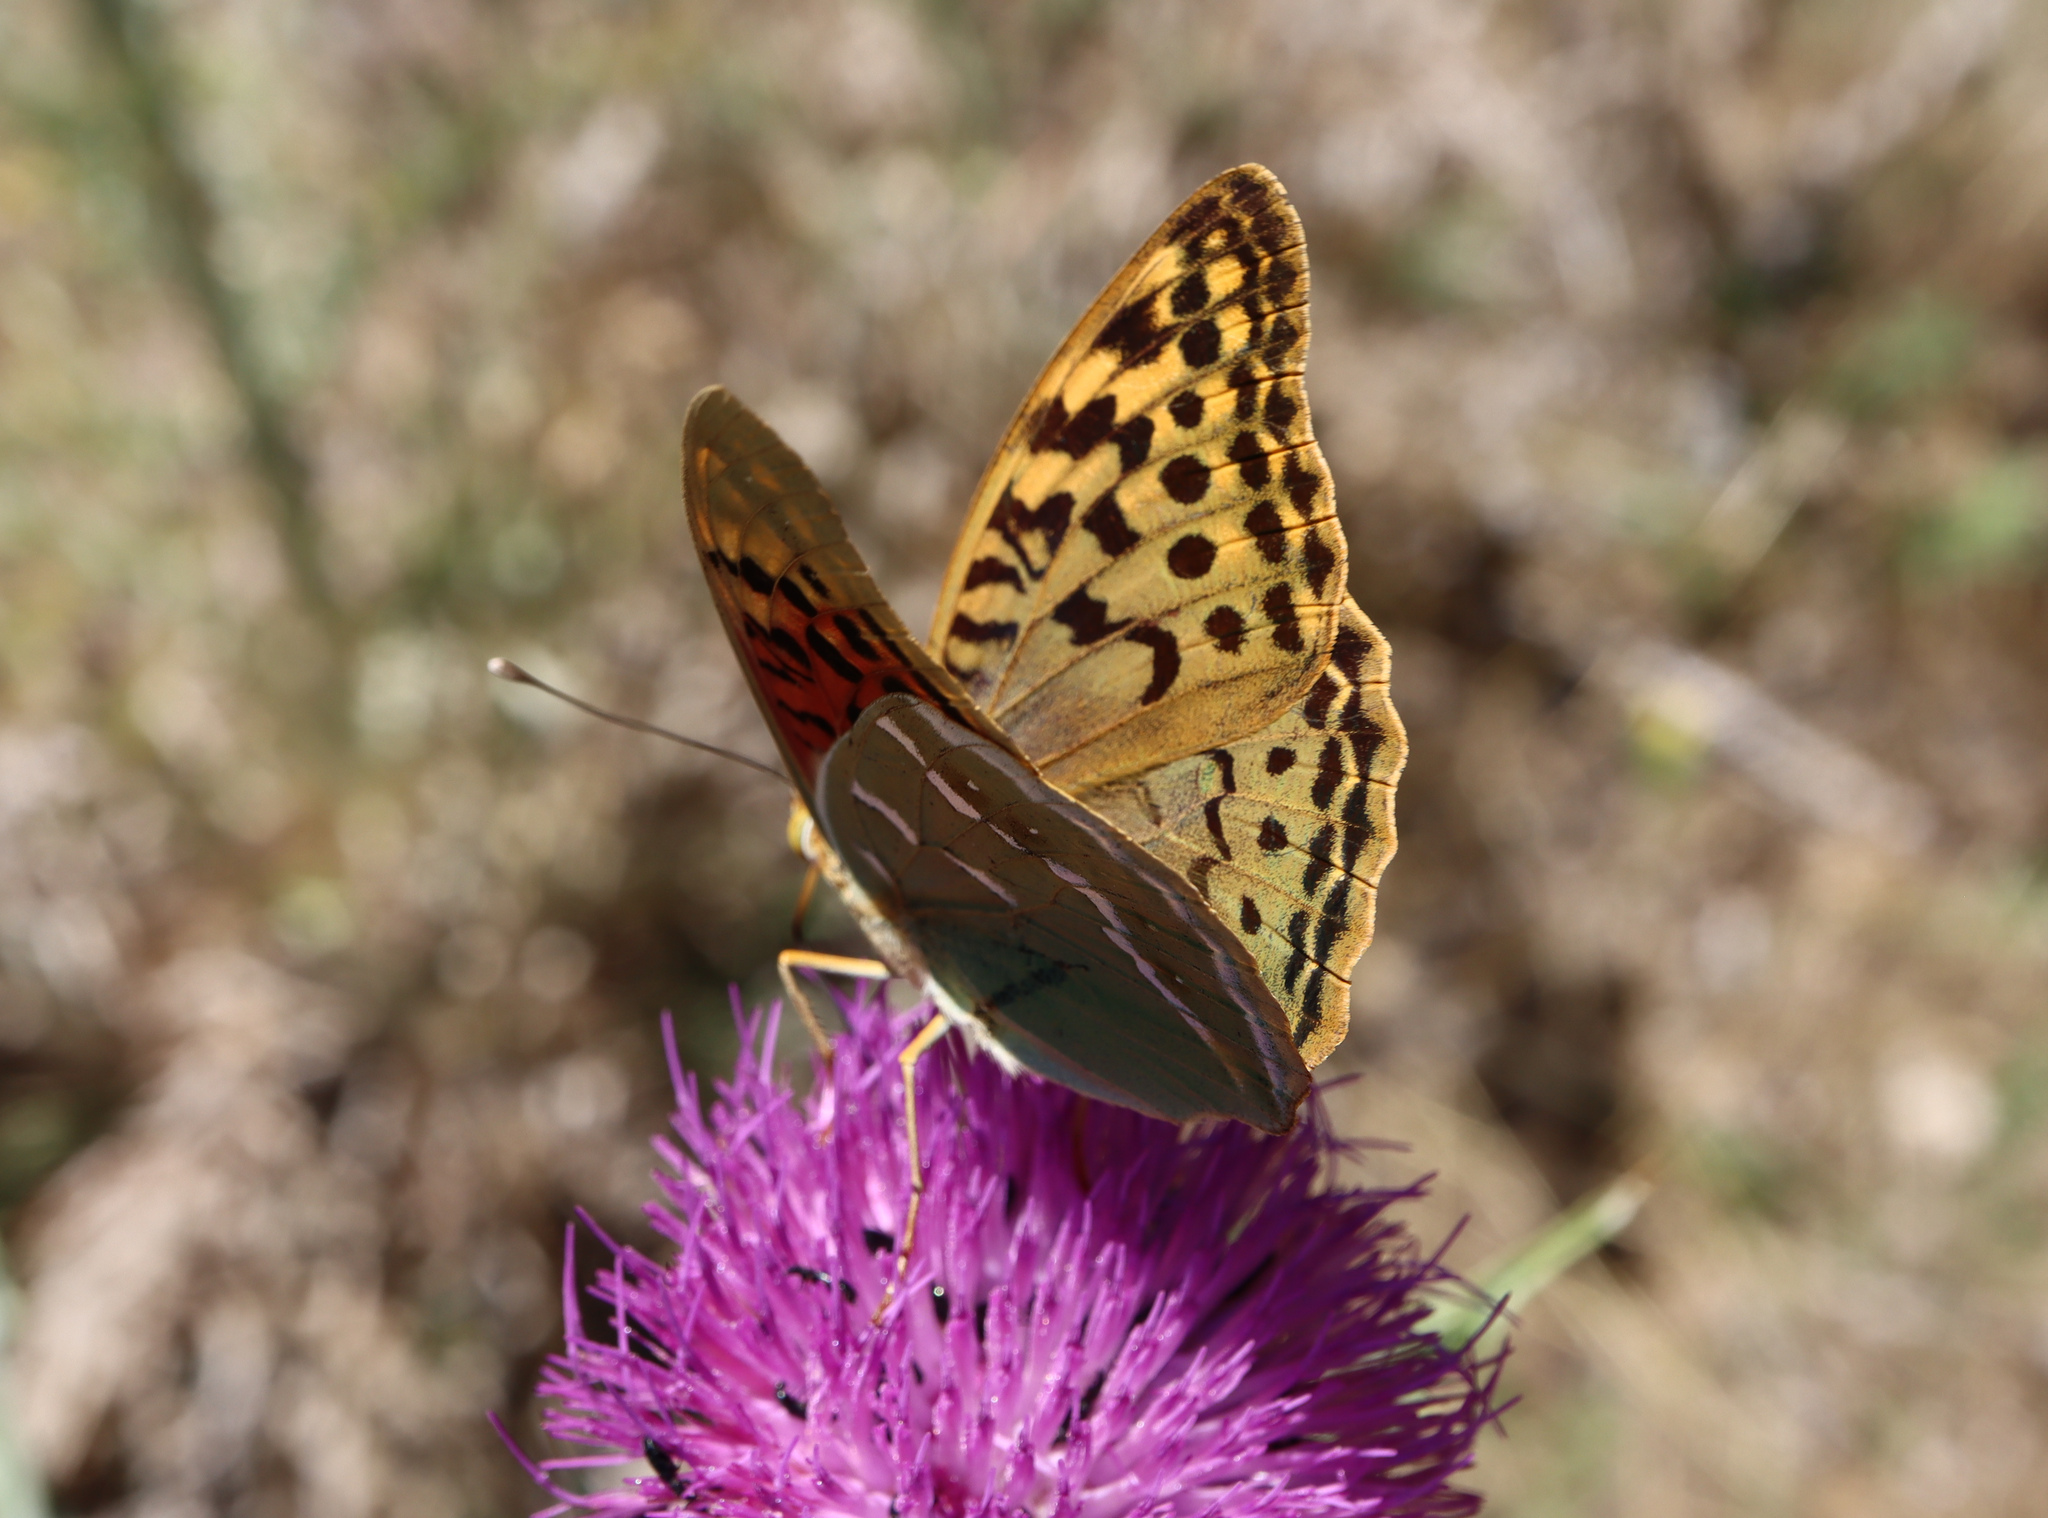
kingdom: Animalia
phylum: Arthropoda
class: Insecta
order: Lepidoptera
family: Nymphalidae
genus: Damora
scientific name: Damora pandora
